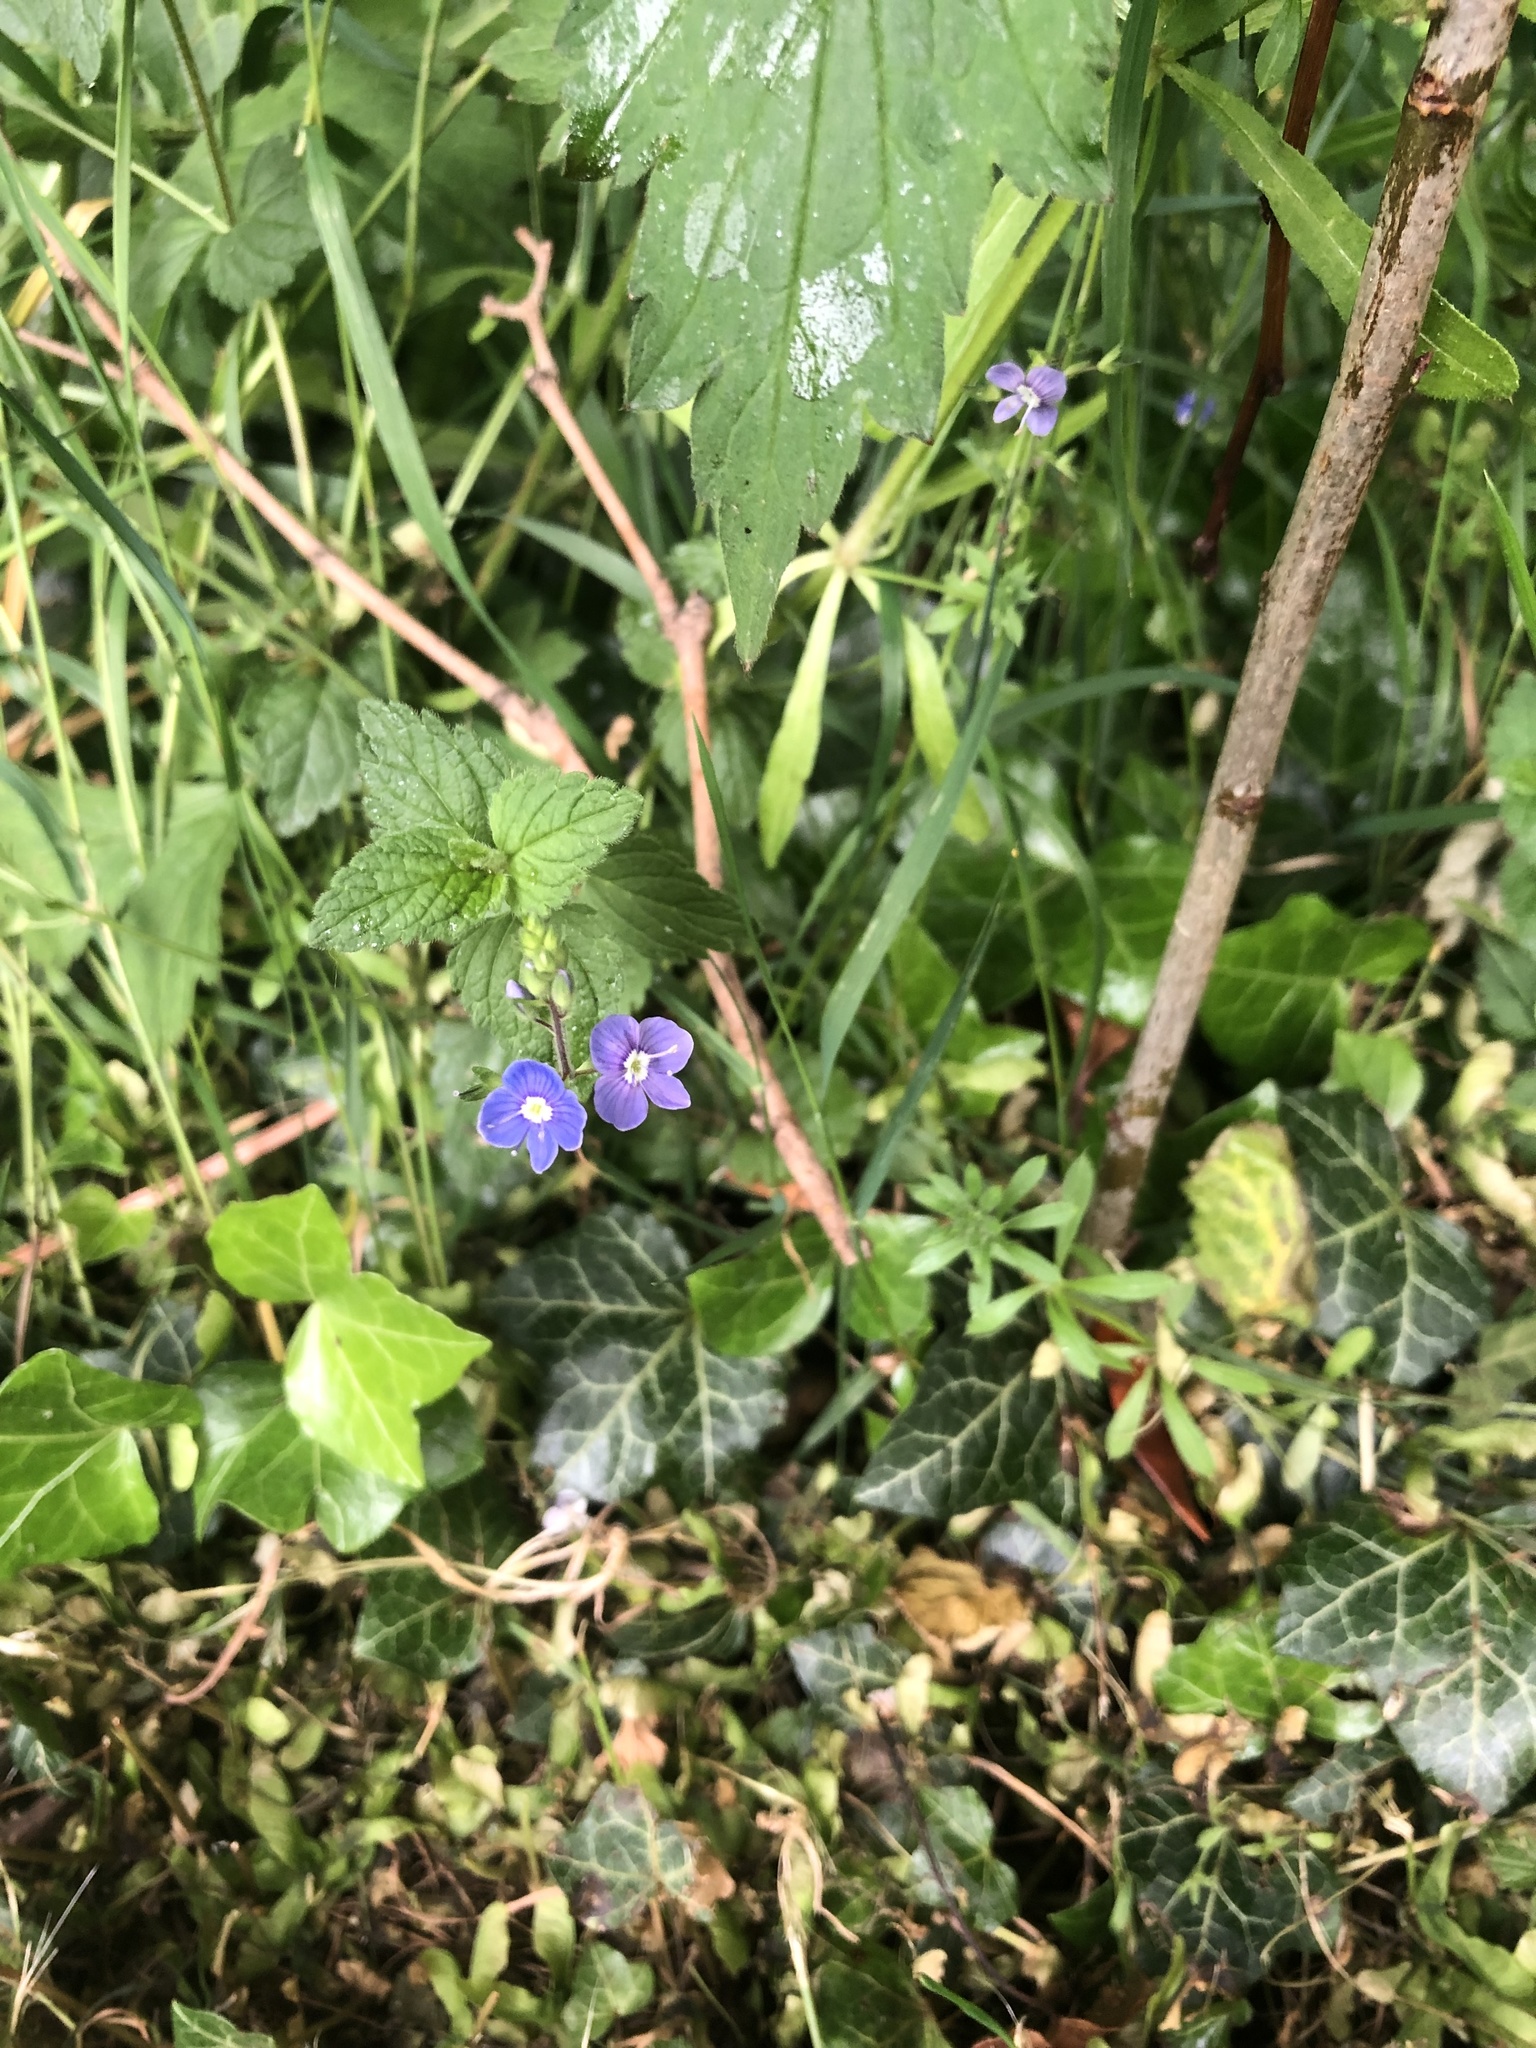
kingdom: Plantae
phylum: Tracheophyta
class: Magnoliopsida
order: Lamiales
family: Plantaginaceae
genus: Veronica
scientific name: Veronica chamaedrys
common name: Germander speedwell
